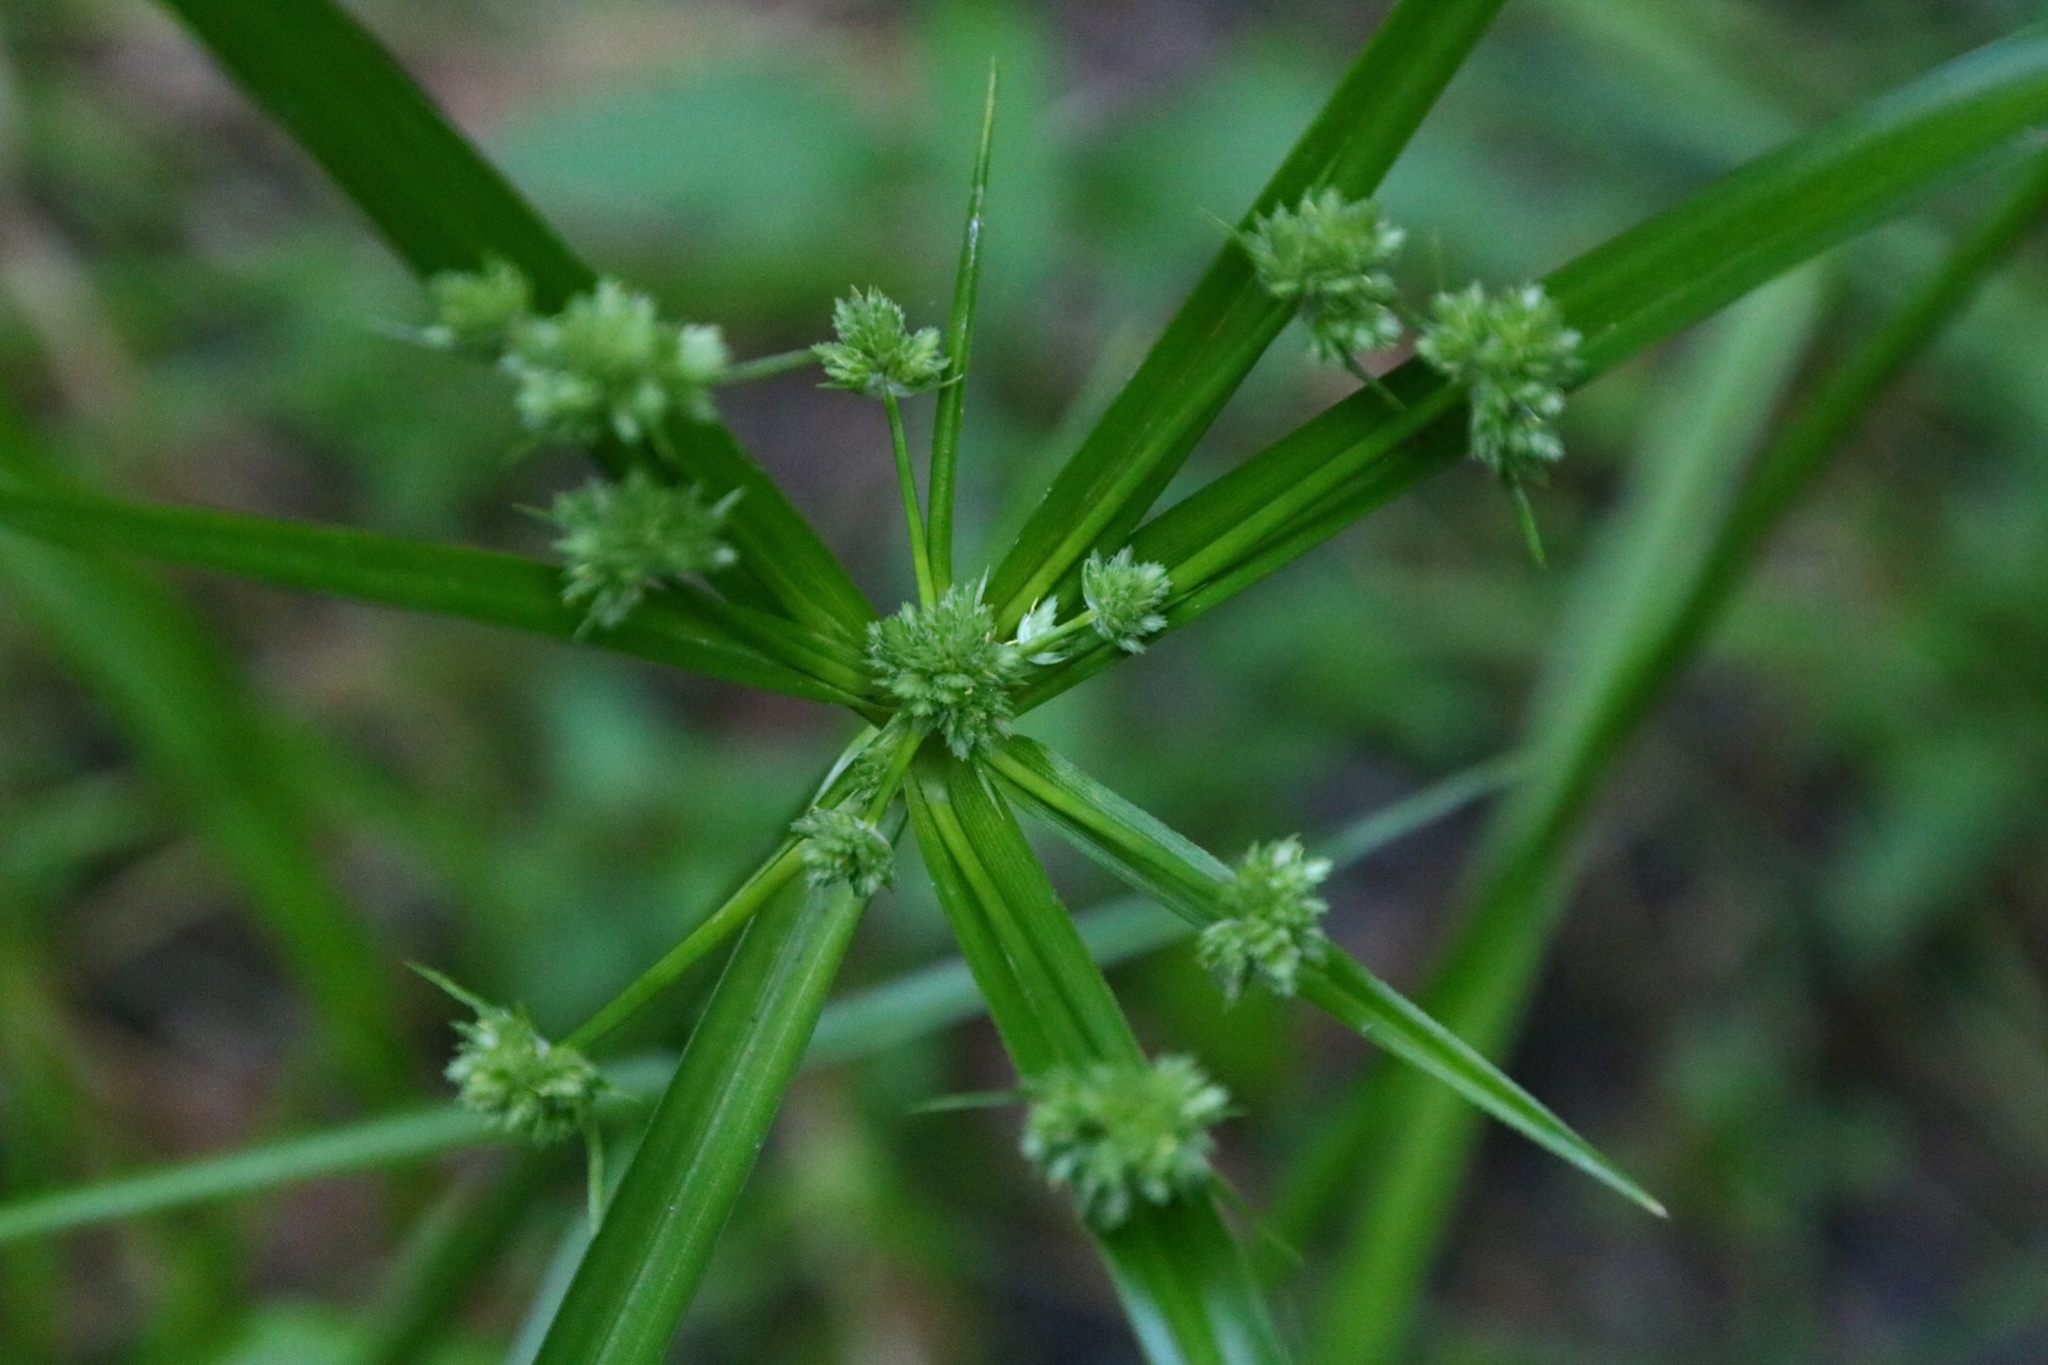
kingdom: Plantae
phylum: Tracheophyta
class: Liliopsida
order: Poales
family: Cyperaceae
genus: Cyperus
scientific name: Cyperus eragrostis
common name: Tall flatsedge
